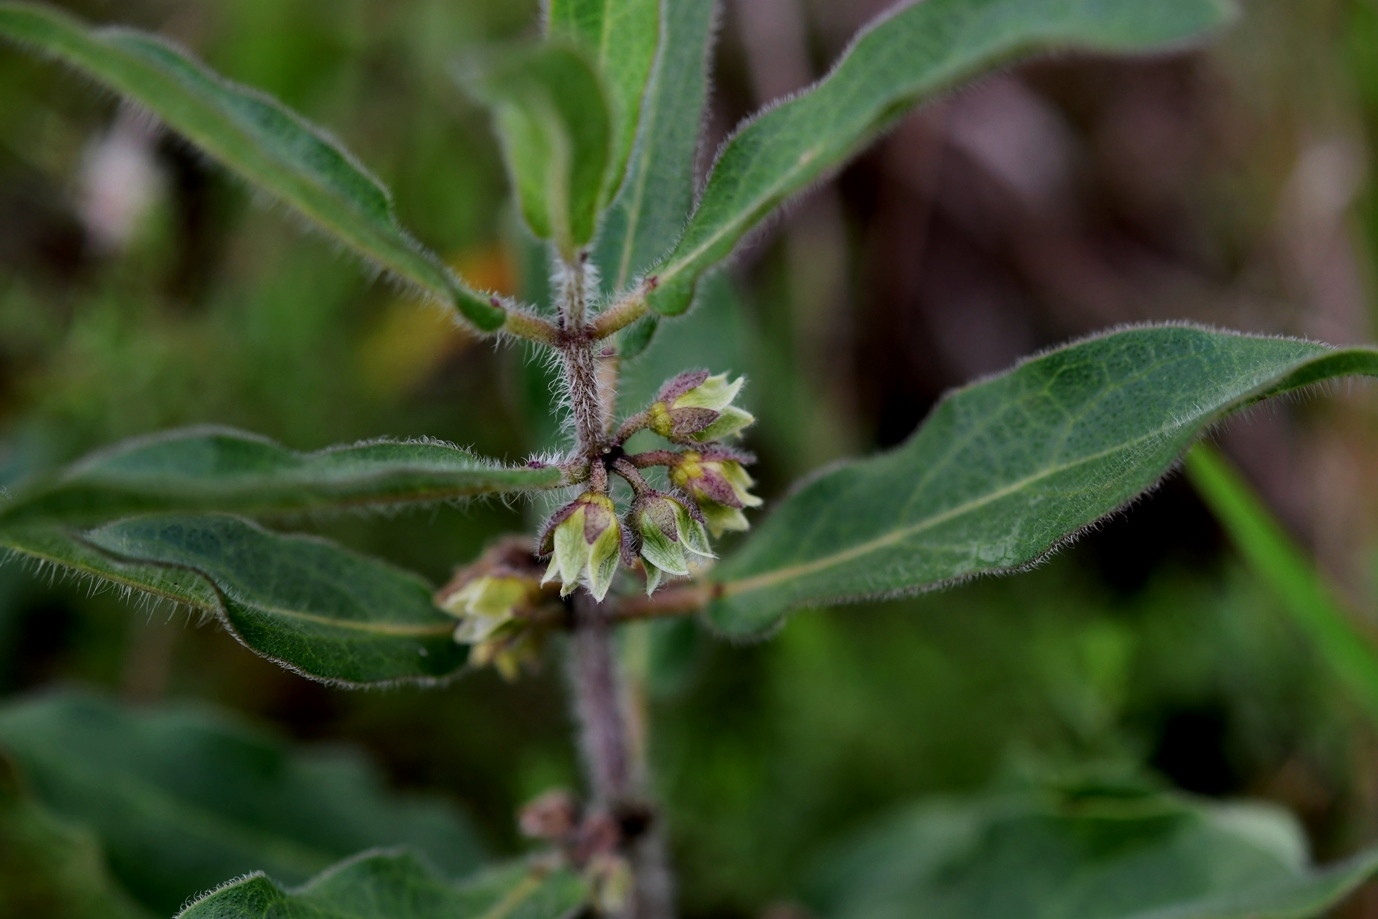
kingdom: Plantae
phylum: Tracheophyta
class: Magnoliopsida
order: Gentianales
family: Apocynaceae
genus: Pherotrichis
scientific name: Pherotrichis villosa
